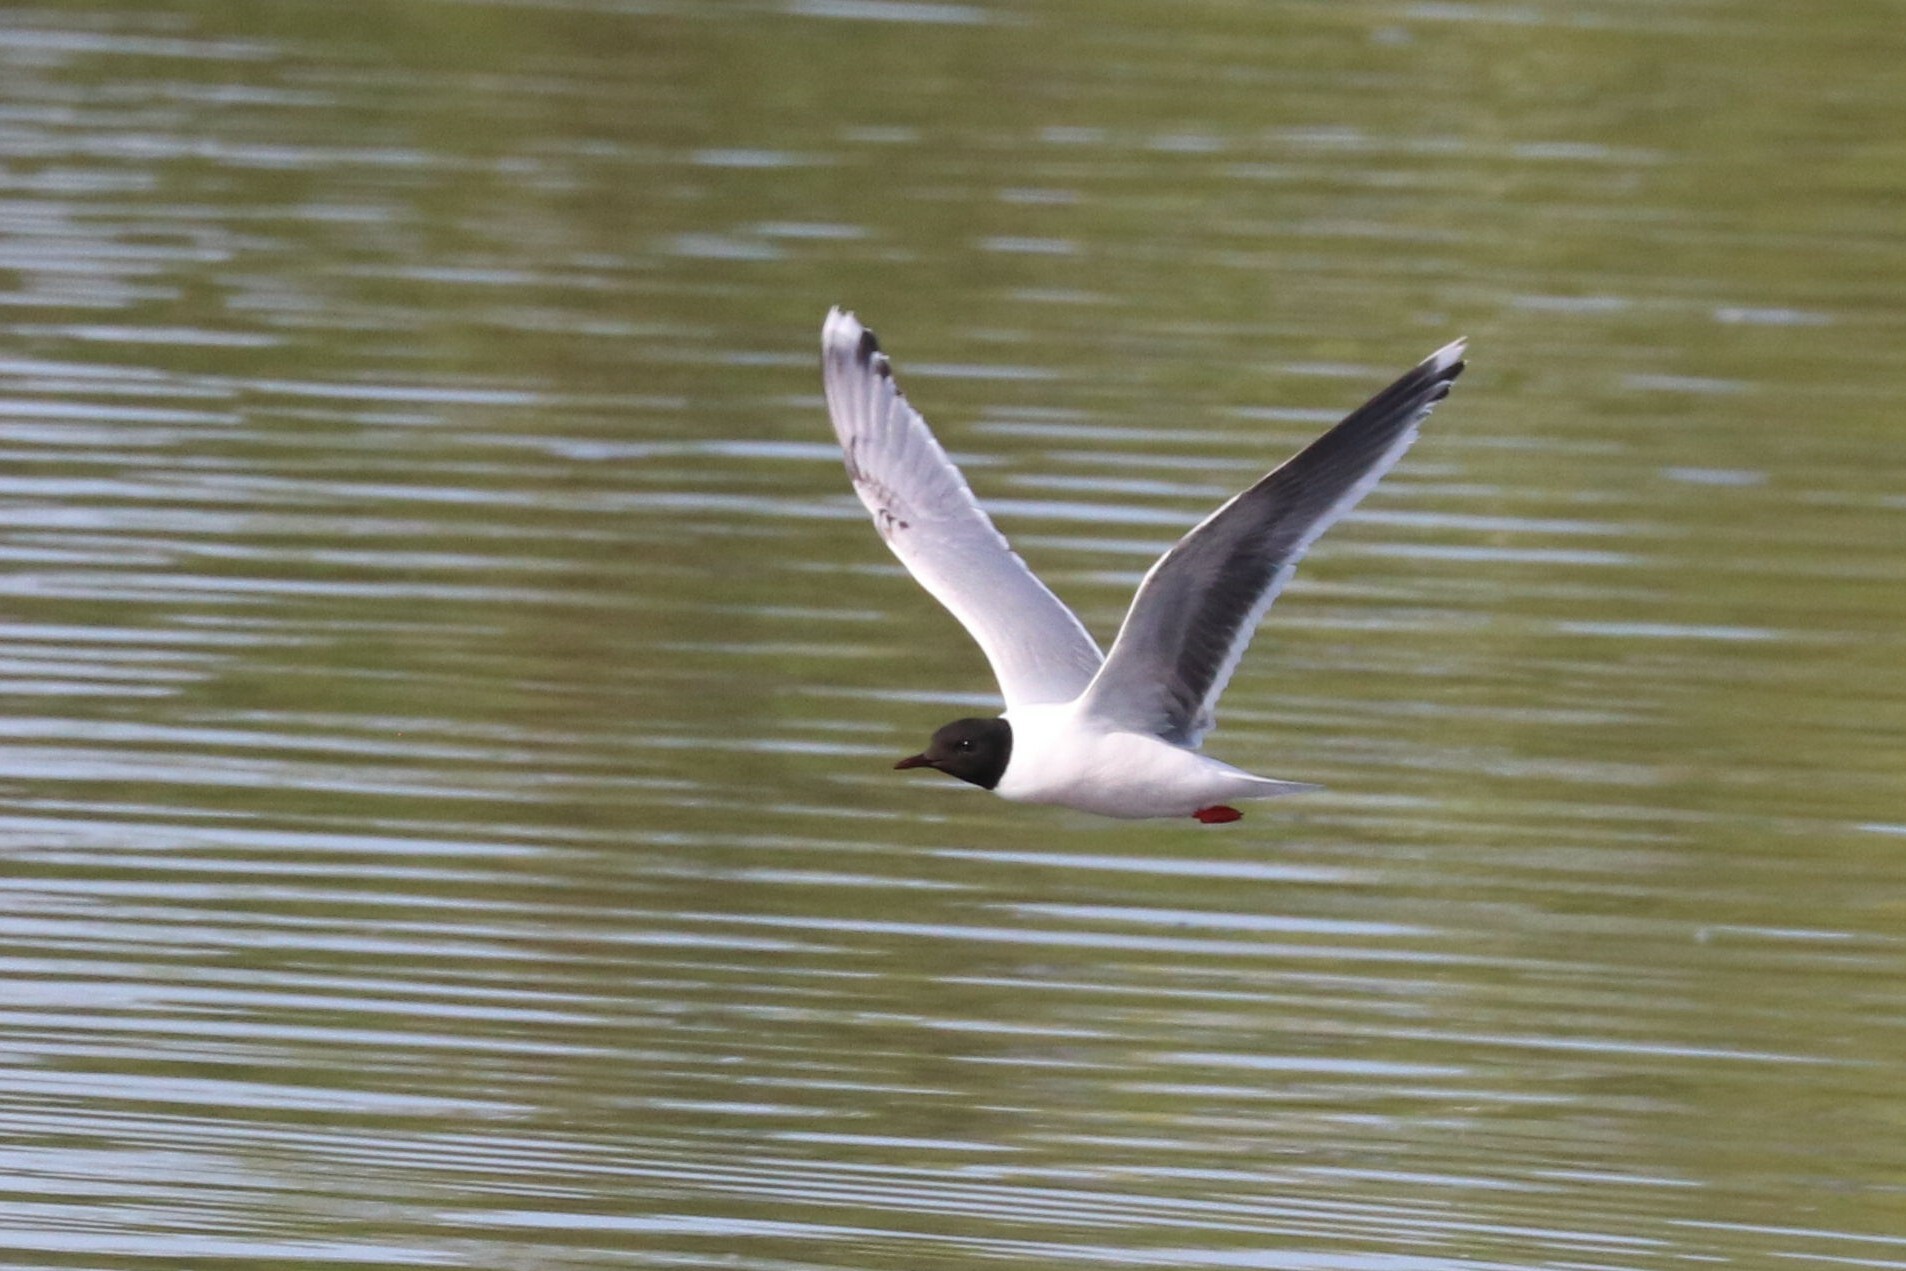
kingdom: Animalia
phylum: Chordata
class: Aves
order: Charadriiformes
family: Laridae
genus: Hydrocoloeus
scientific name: Hydrocoloeus minutus
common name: Little gull
